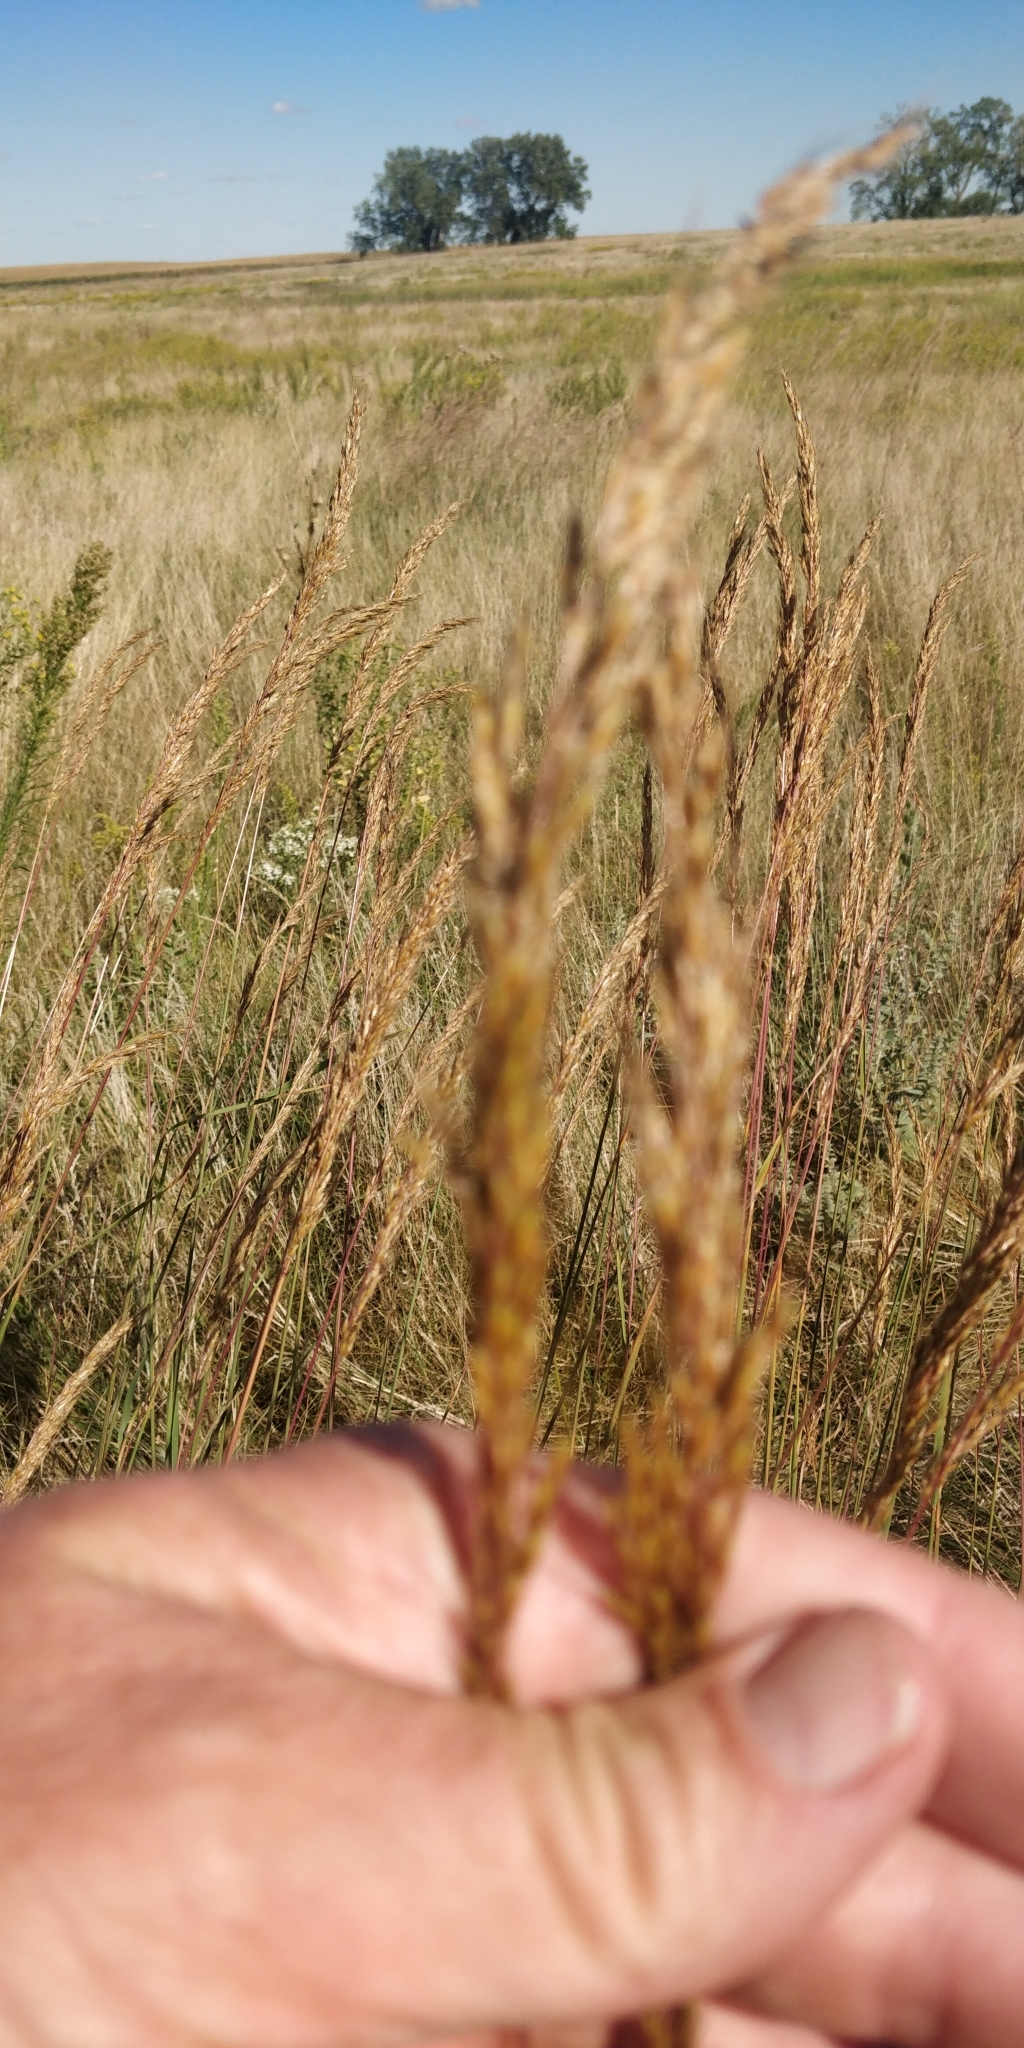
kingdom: Plantae
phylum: Tracheophyta
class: Liliopsida
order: Poales
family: Poaceae
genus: Sorghastrum
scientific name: Sorghastrum nutans
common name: Indian grass
